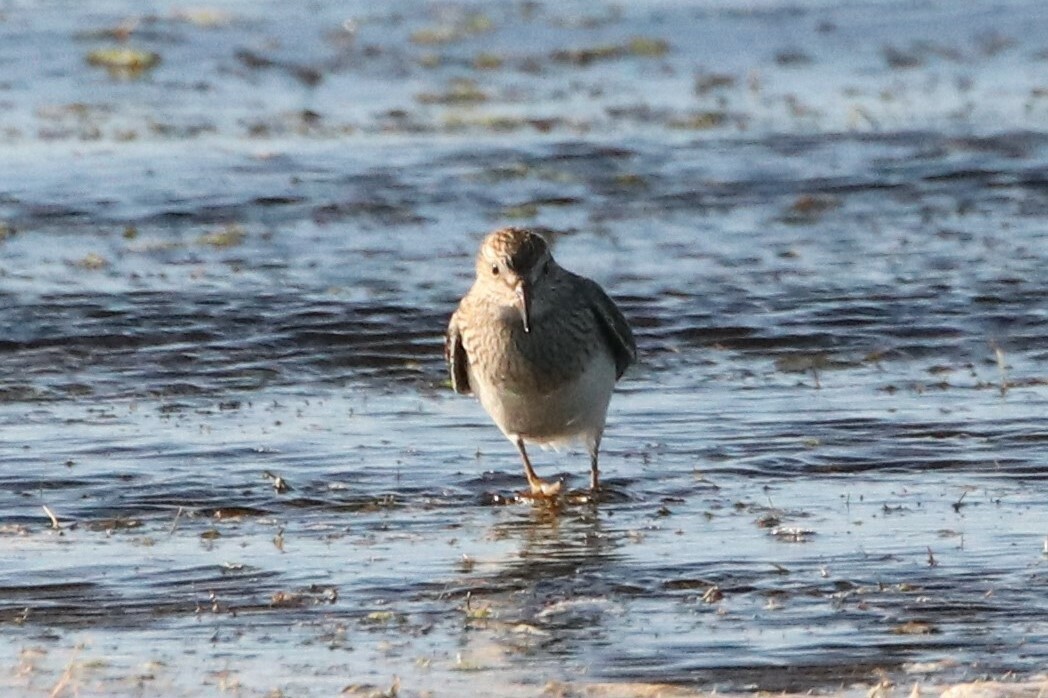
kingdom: Animalia
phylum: Chordata
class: Aves
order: Charadriiformes
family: Scolopacidae
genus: Calidris
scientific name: Calidris melanotos
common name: Pectoral sandpiper
